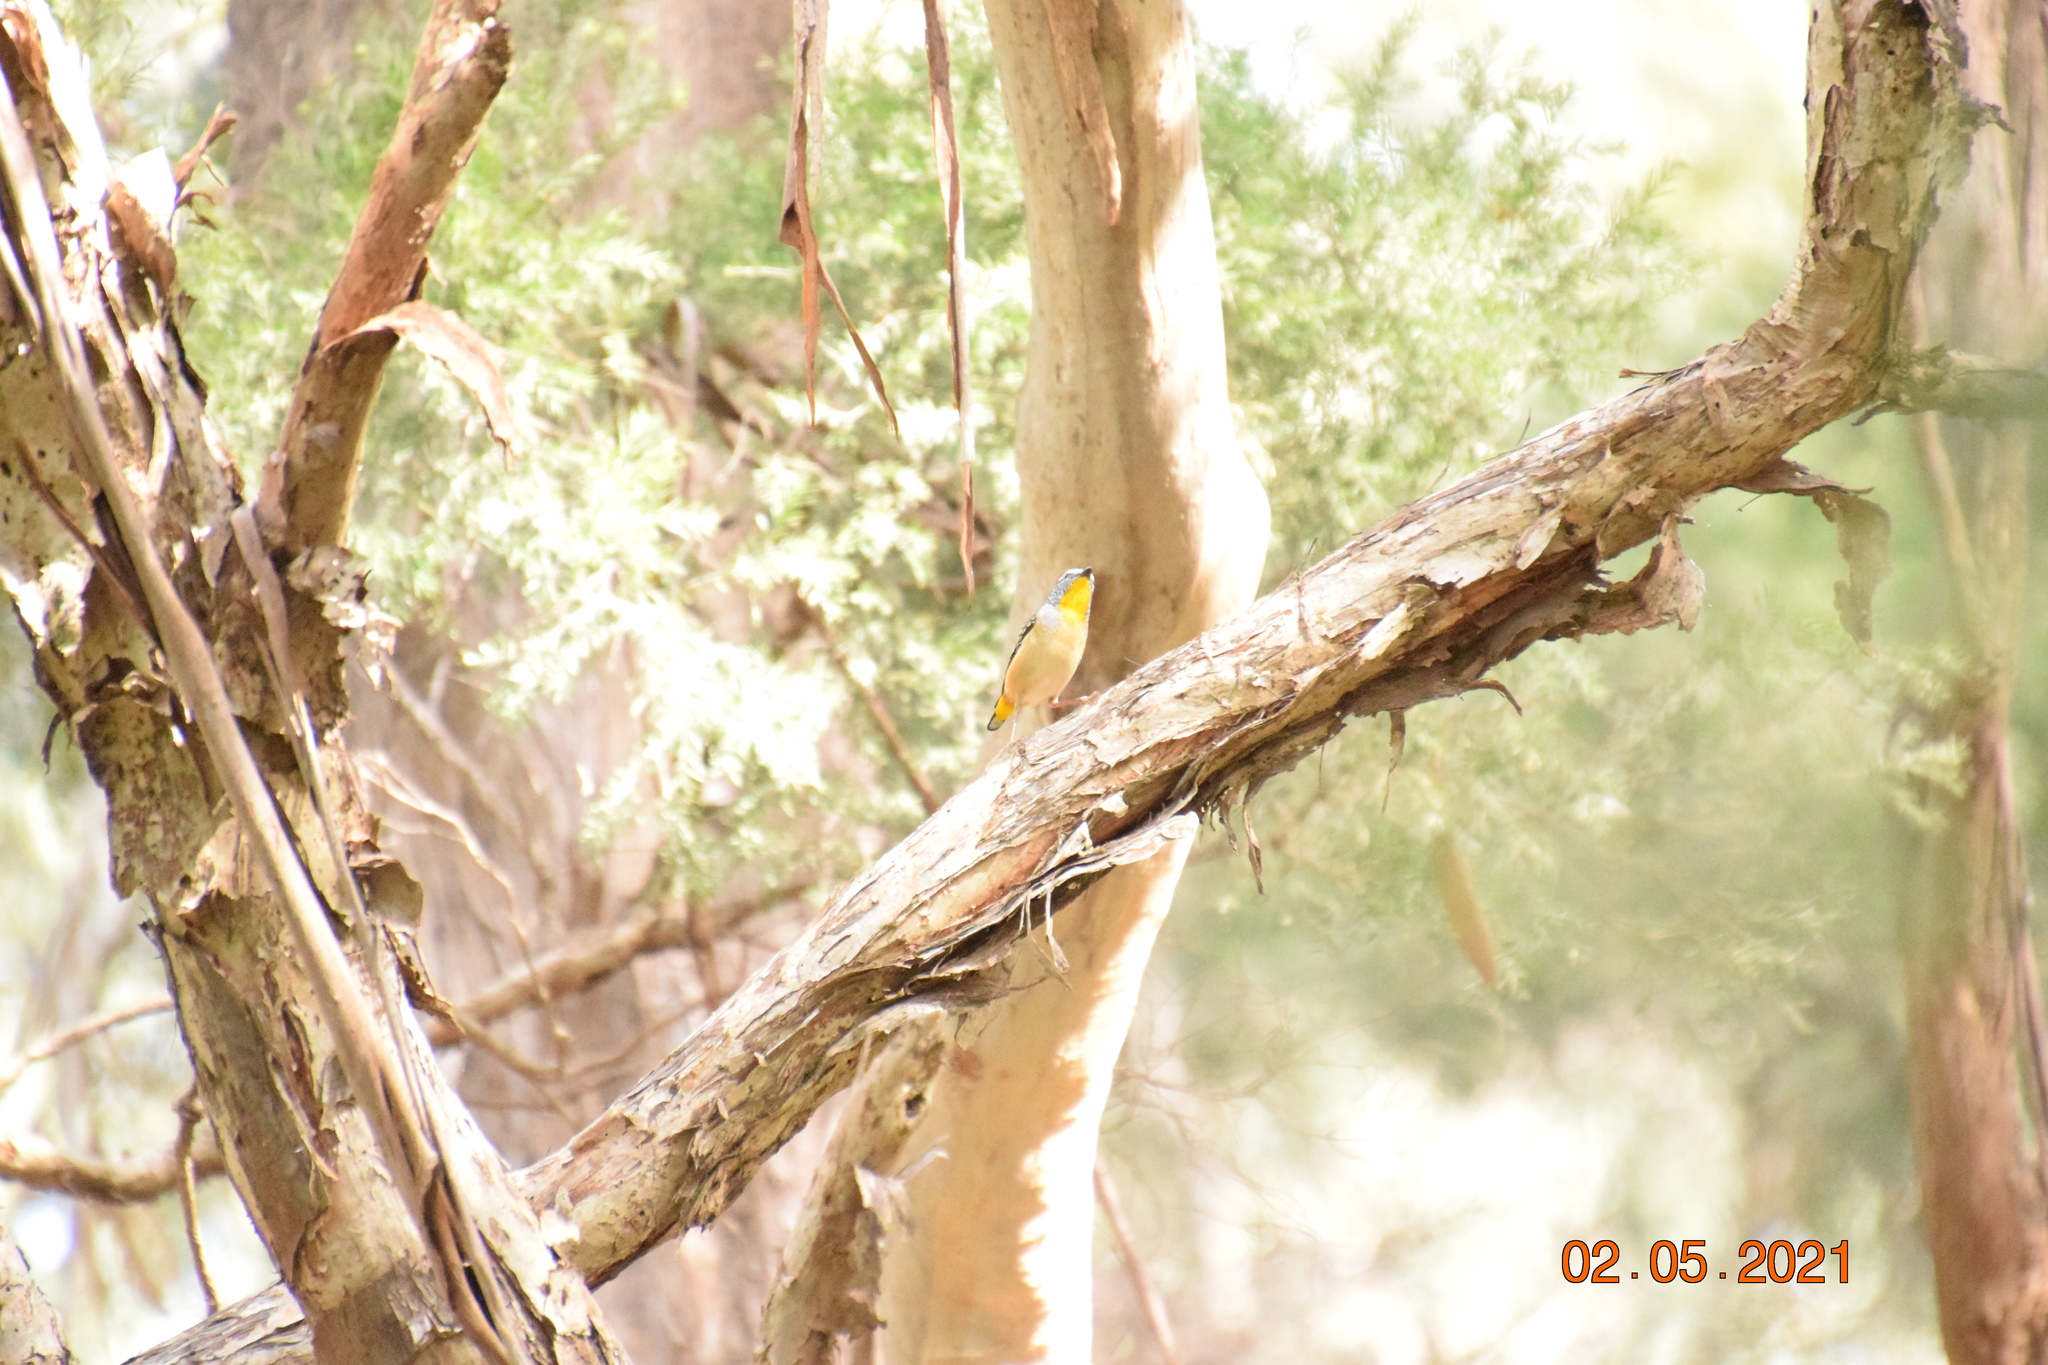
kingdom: Animalia
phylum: Chordata
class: Aves
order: Passeriformes
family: Pardalotidae
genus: Pardalotus
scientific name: Pardalotus punctatus
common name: Spotted pardalote
